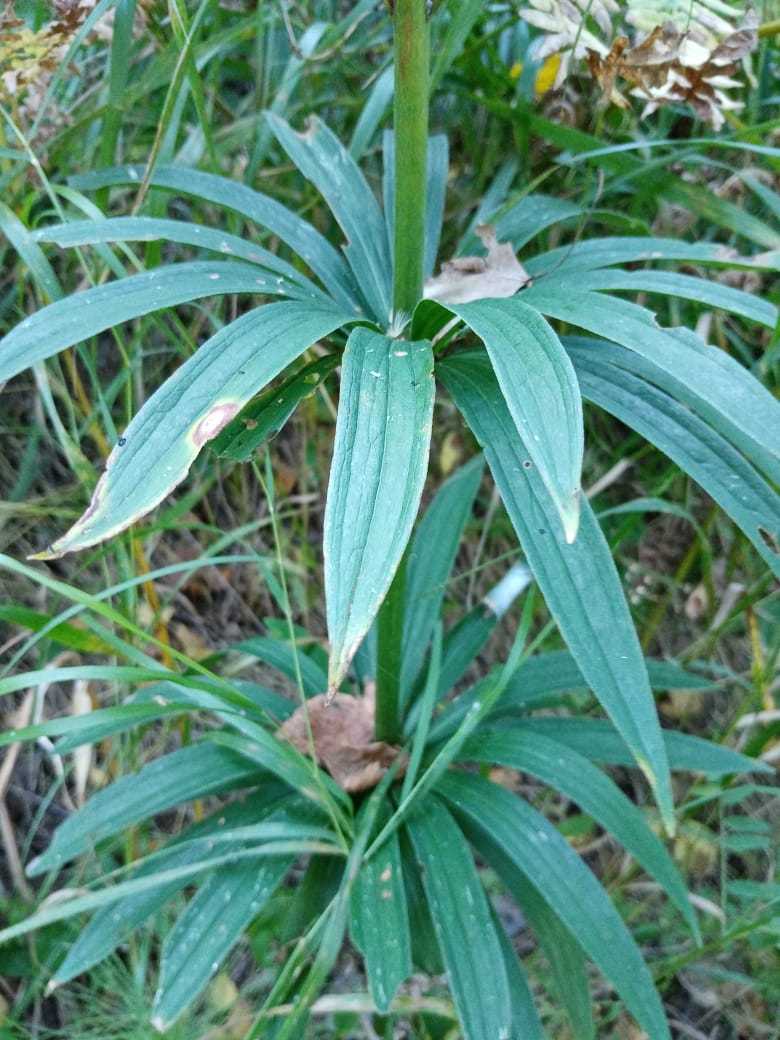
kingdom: Plantae
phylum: Tracheophyta
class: Liliopsida
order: Liliales
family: Liliaceae
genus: Lilium
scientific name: Lilium martagon
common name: Martagon lily
